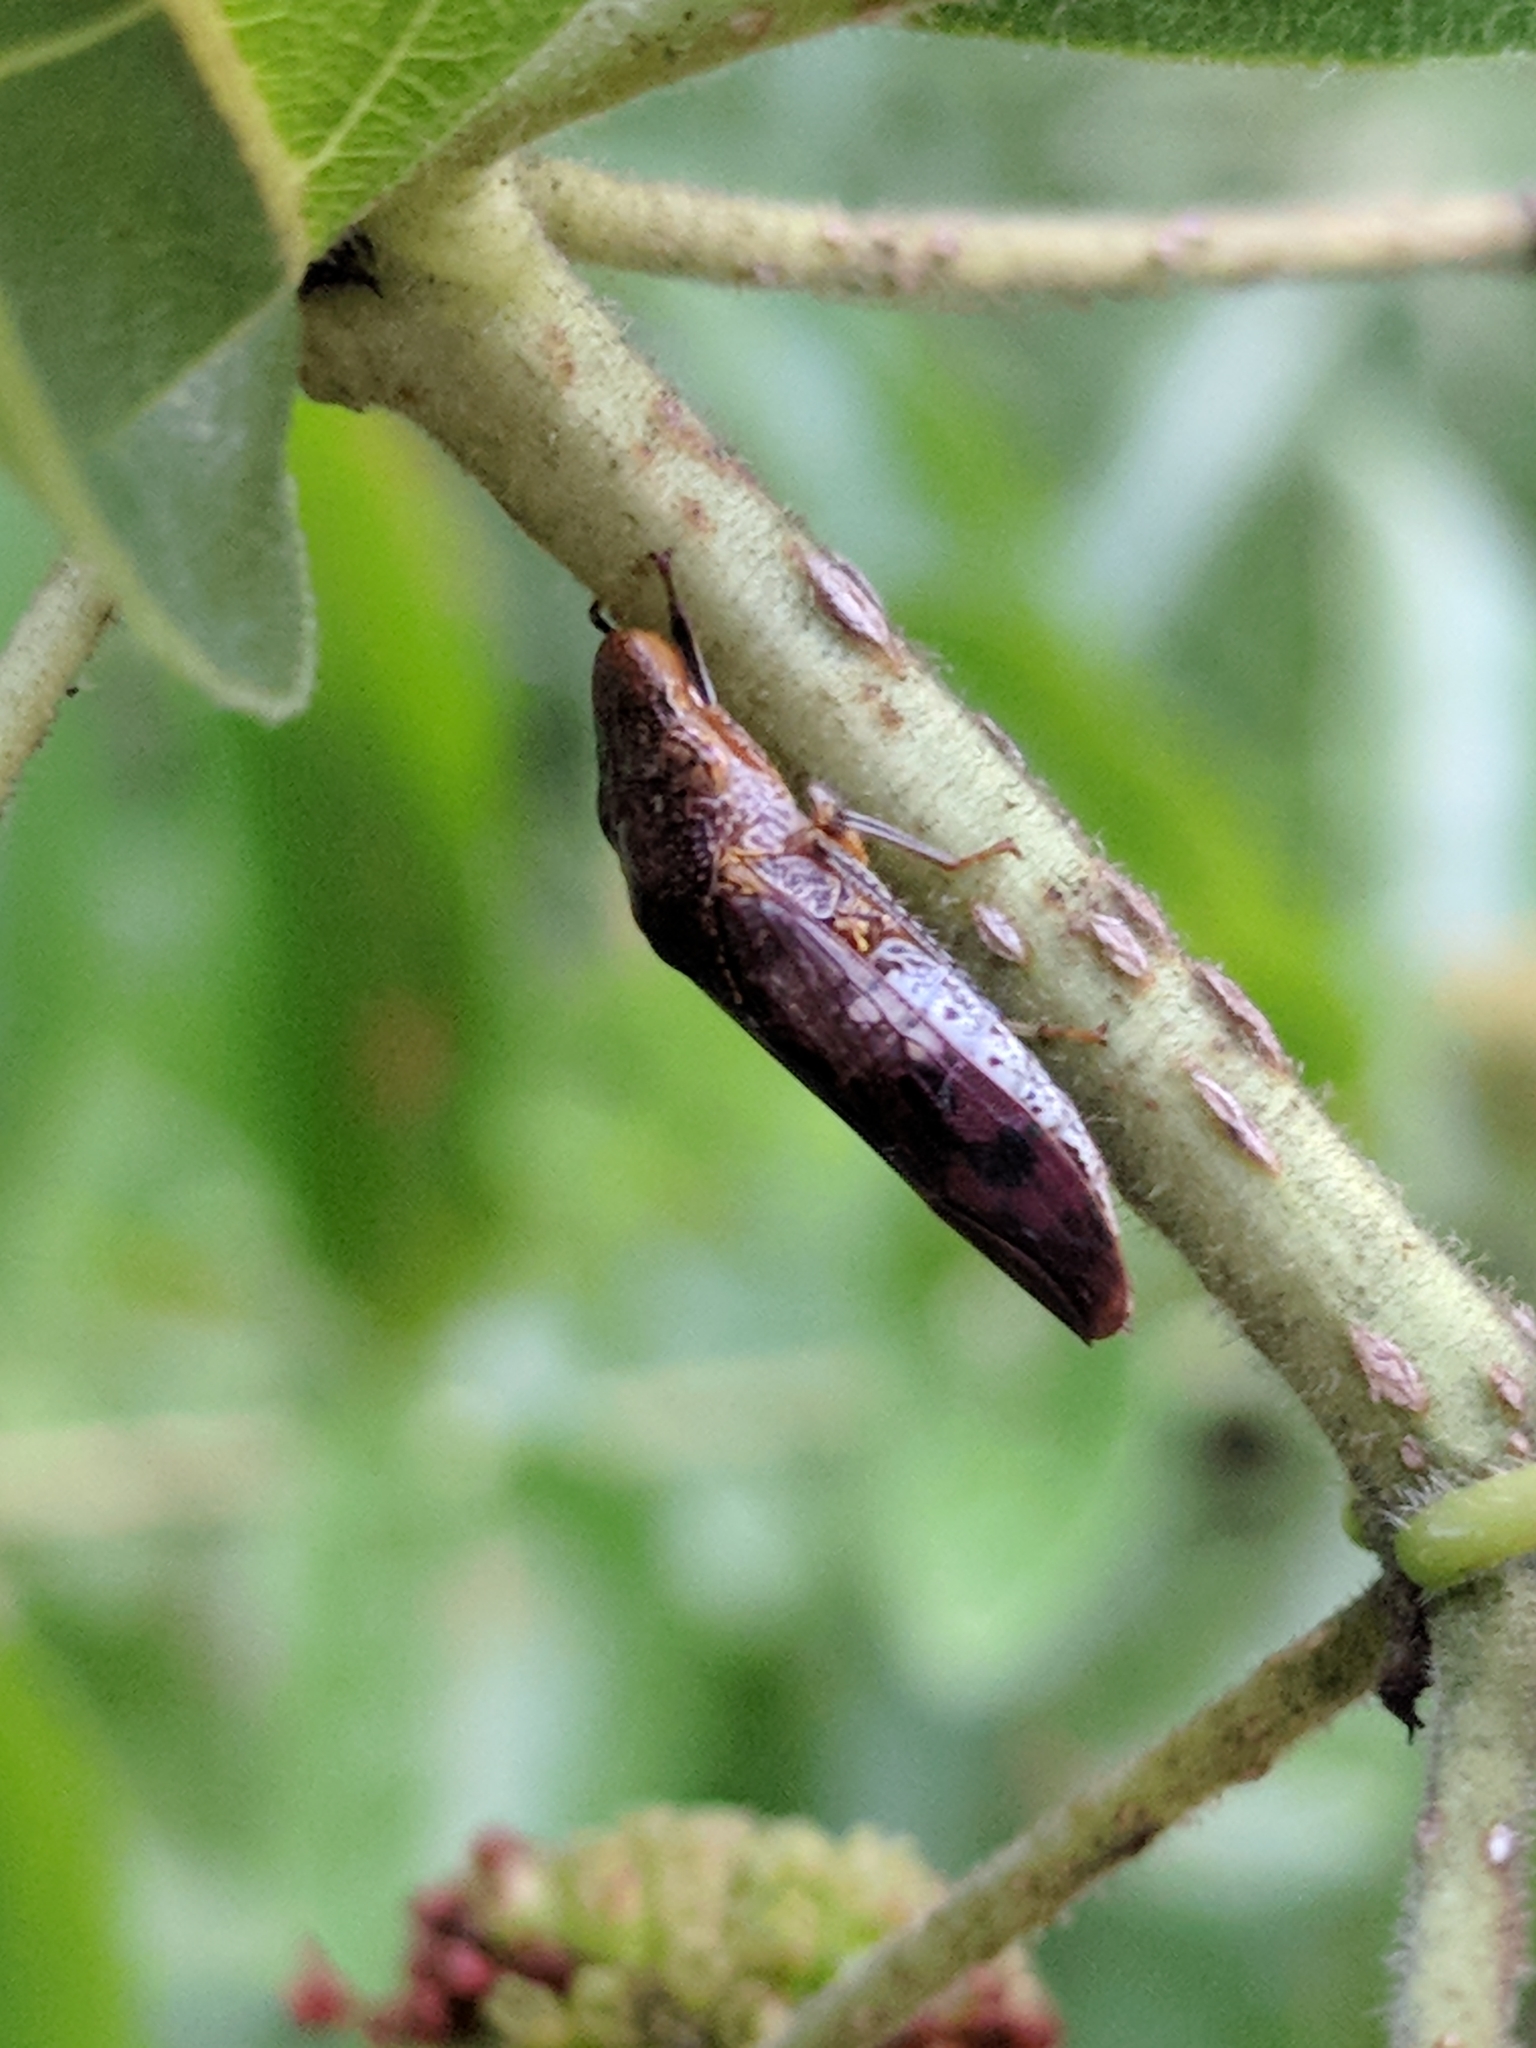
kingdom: Animalia
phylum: Arthropoda
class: Insecta
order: Hemiptera
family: Cicadellidae
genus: Homalodisca
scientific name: Homalodisca vitripennis
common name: Glassy-winged sharpshooter
